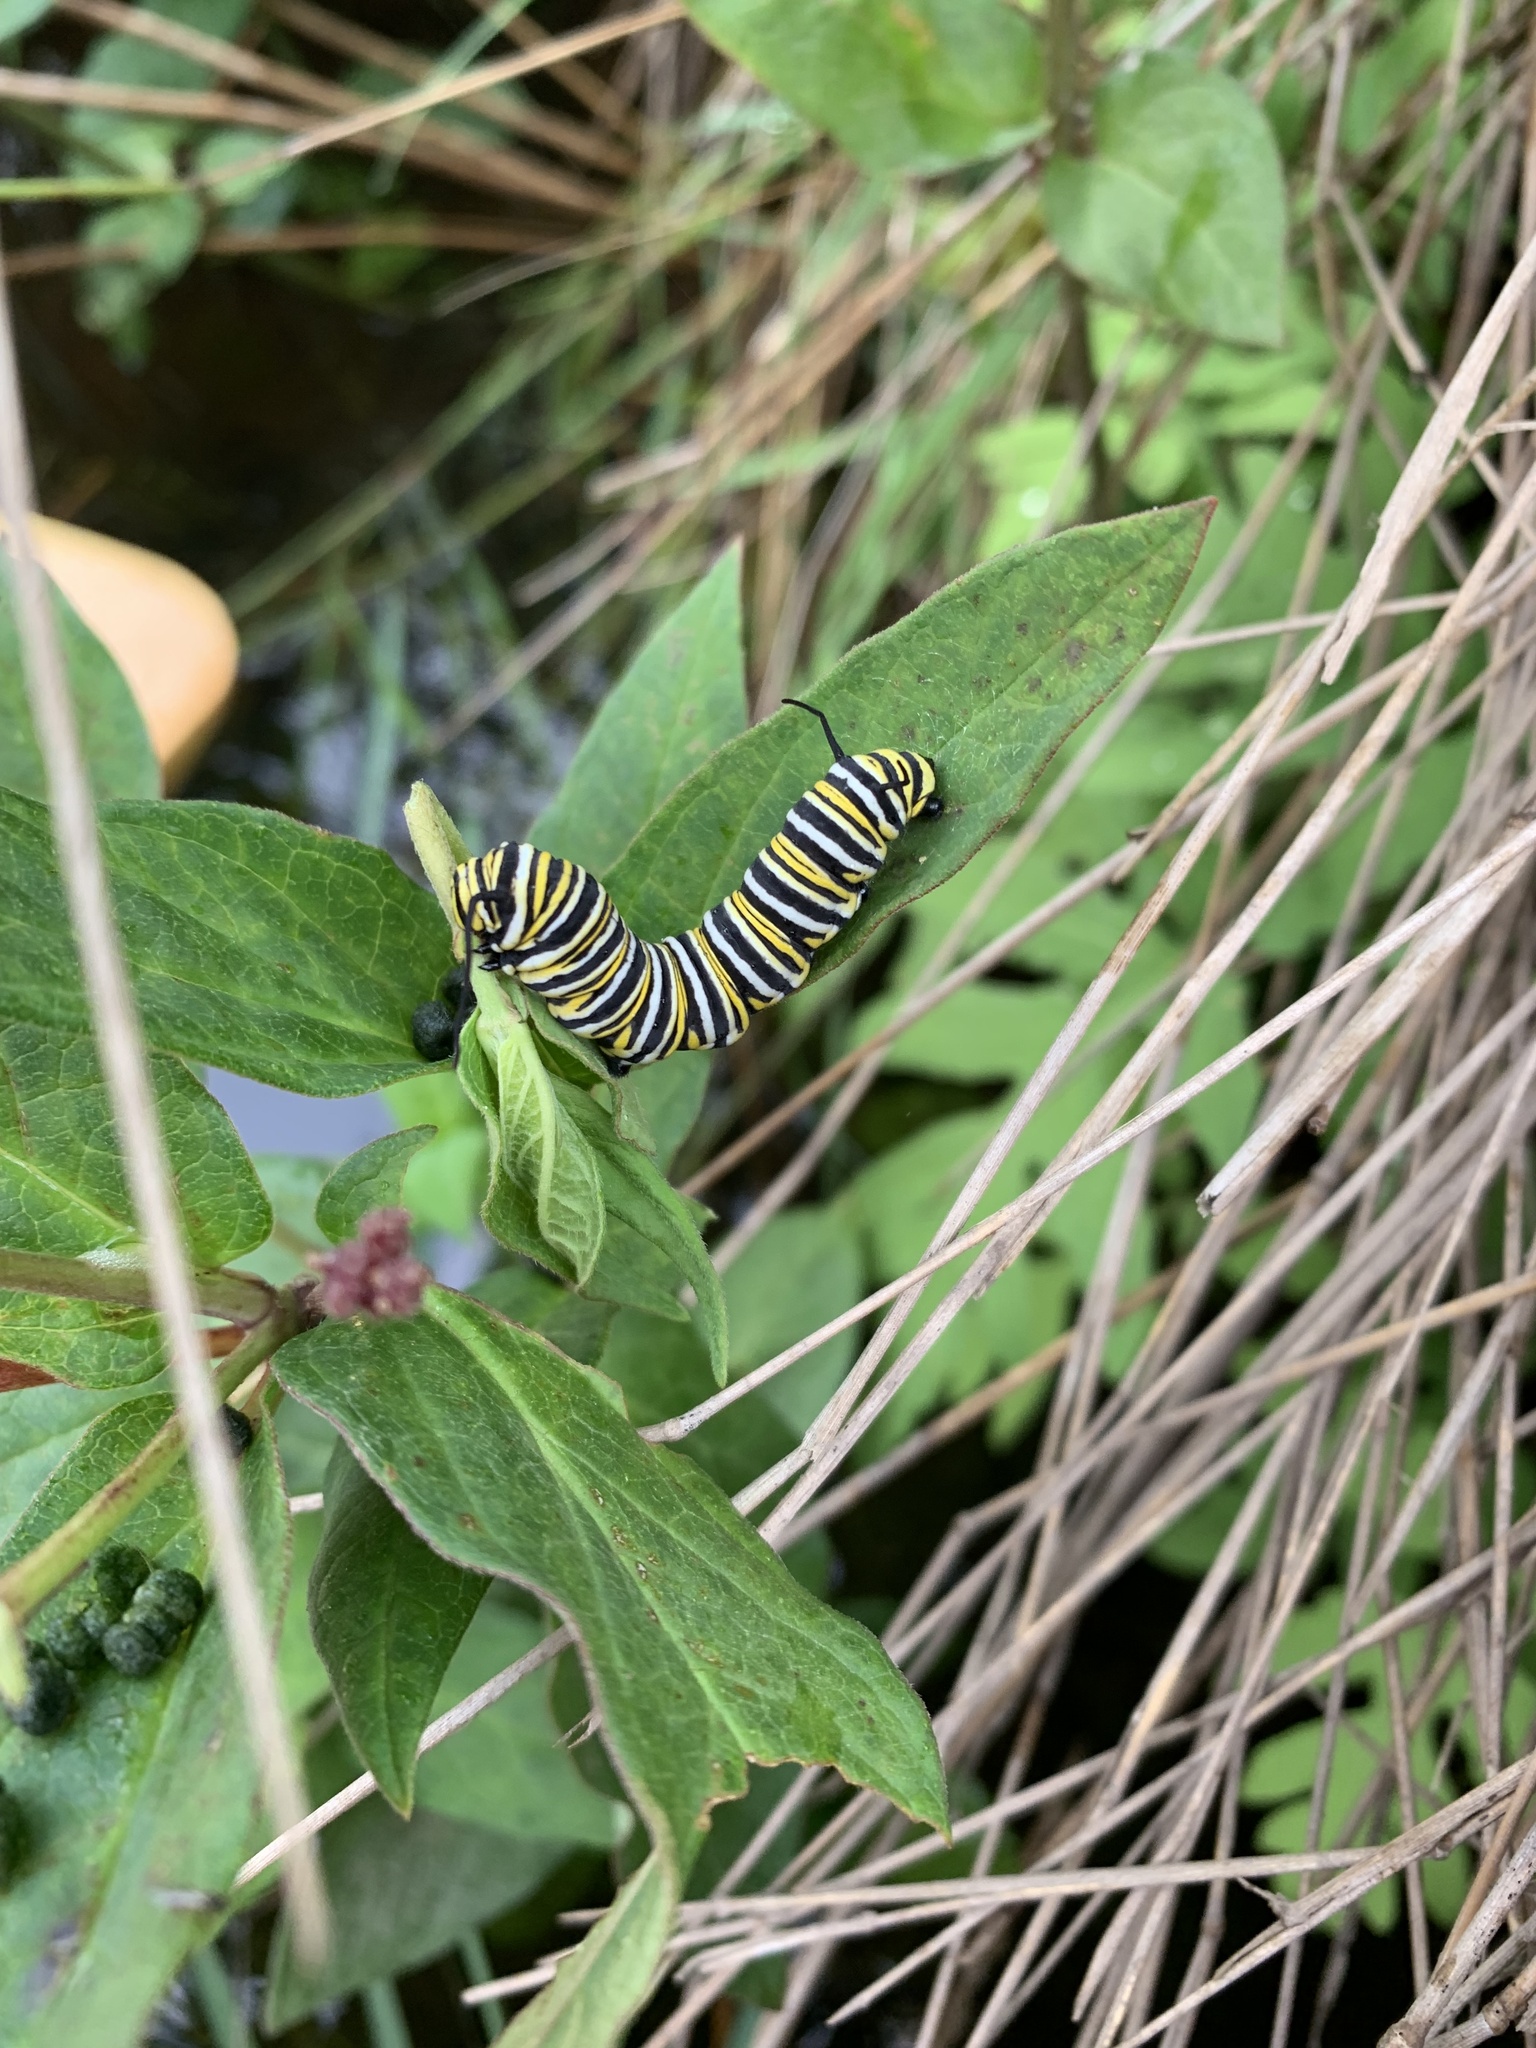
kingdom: Animalia
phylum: Arthropoda
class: Insecta
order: Lepidoptera
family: Nymphalidae
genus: Danaus
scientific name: Danaus plexippus
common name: Monarch
